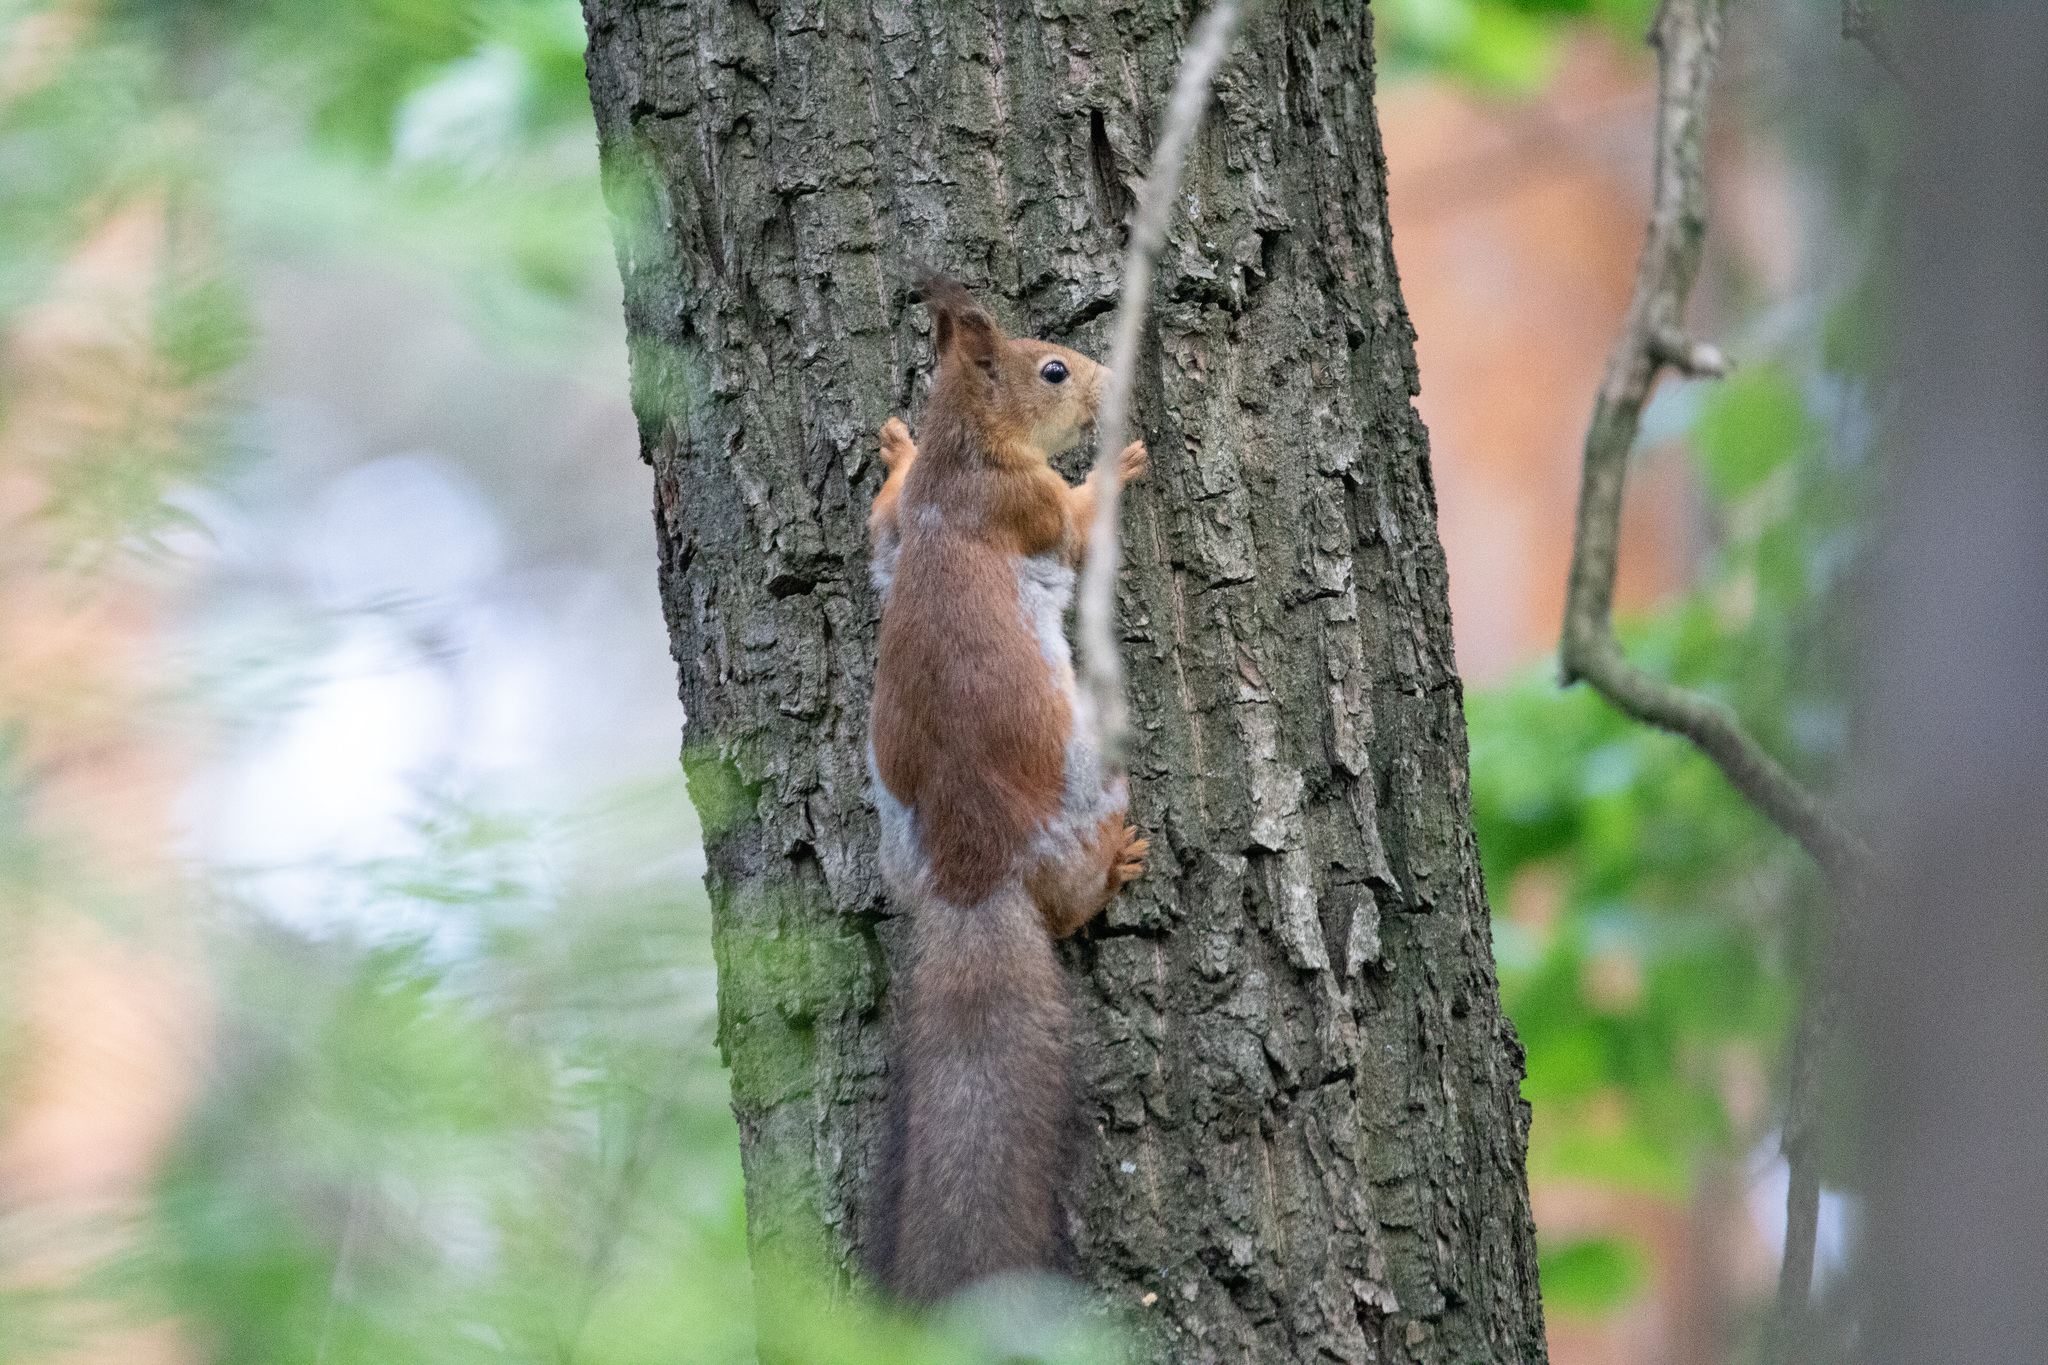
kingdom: Animalia
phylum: Chordata
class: Mammalia
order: Rodentia
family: Sciuridae
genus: Sciurus
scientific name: Sciurus vulgaris
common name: Eurasian red squirrel
